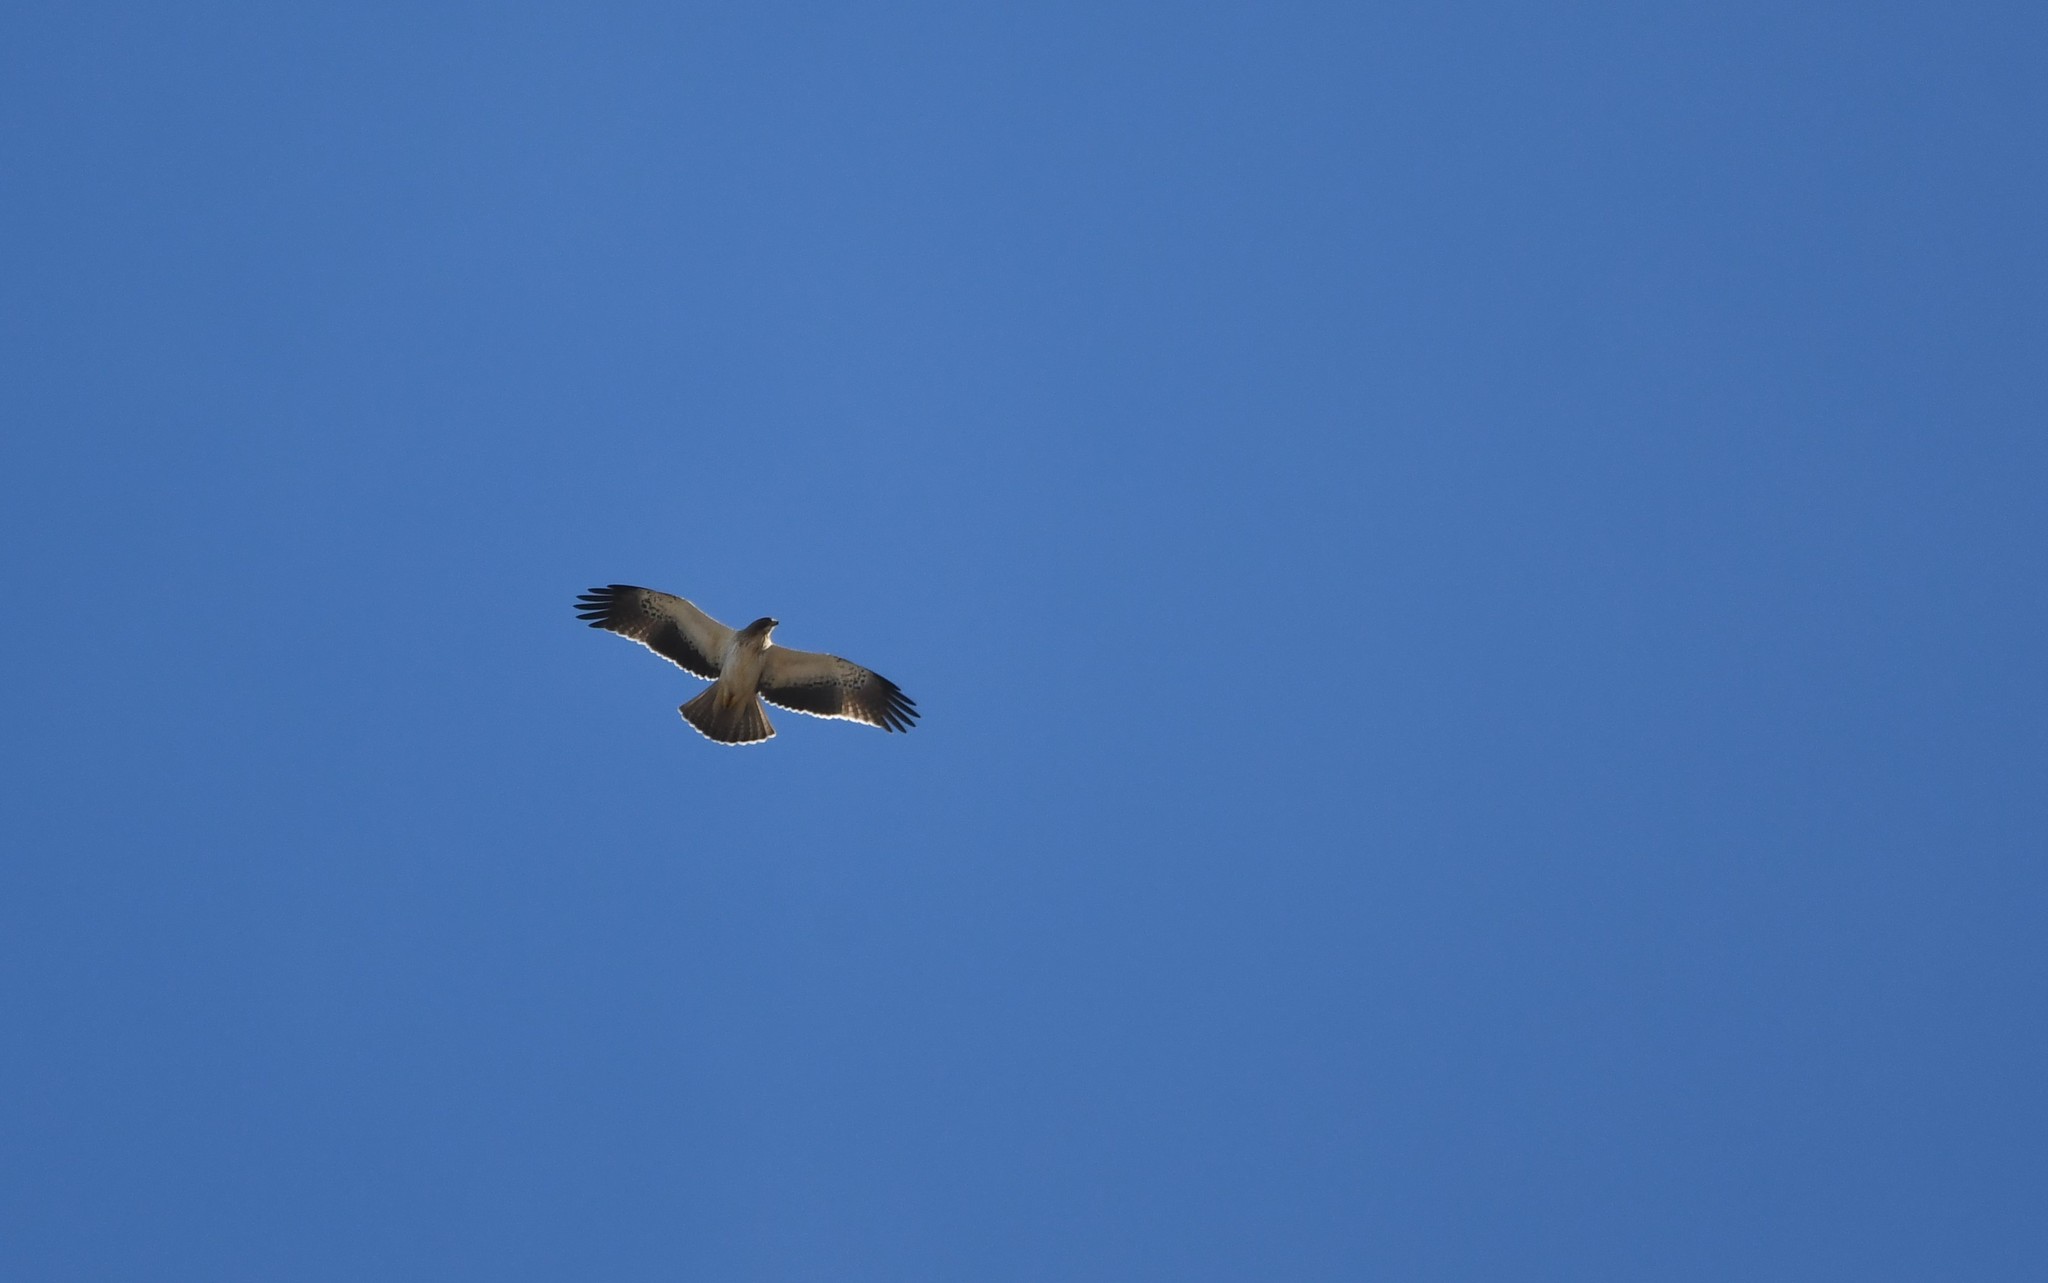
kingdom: Animalia
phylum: Chordata
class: Aves
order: Accipitriformes
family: Accipitridae
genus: Hieraaetus
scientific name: Hieraaetus pennatus
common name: Booted eagle
